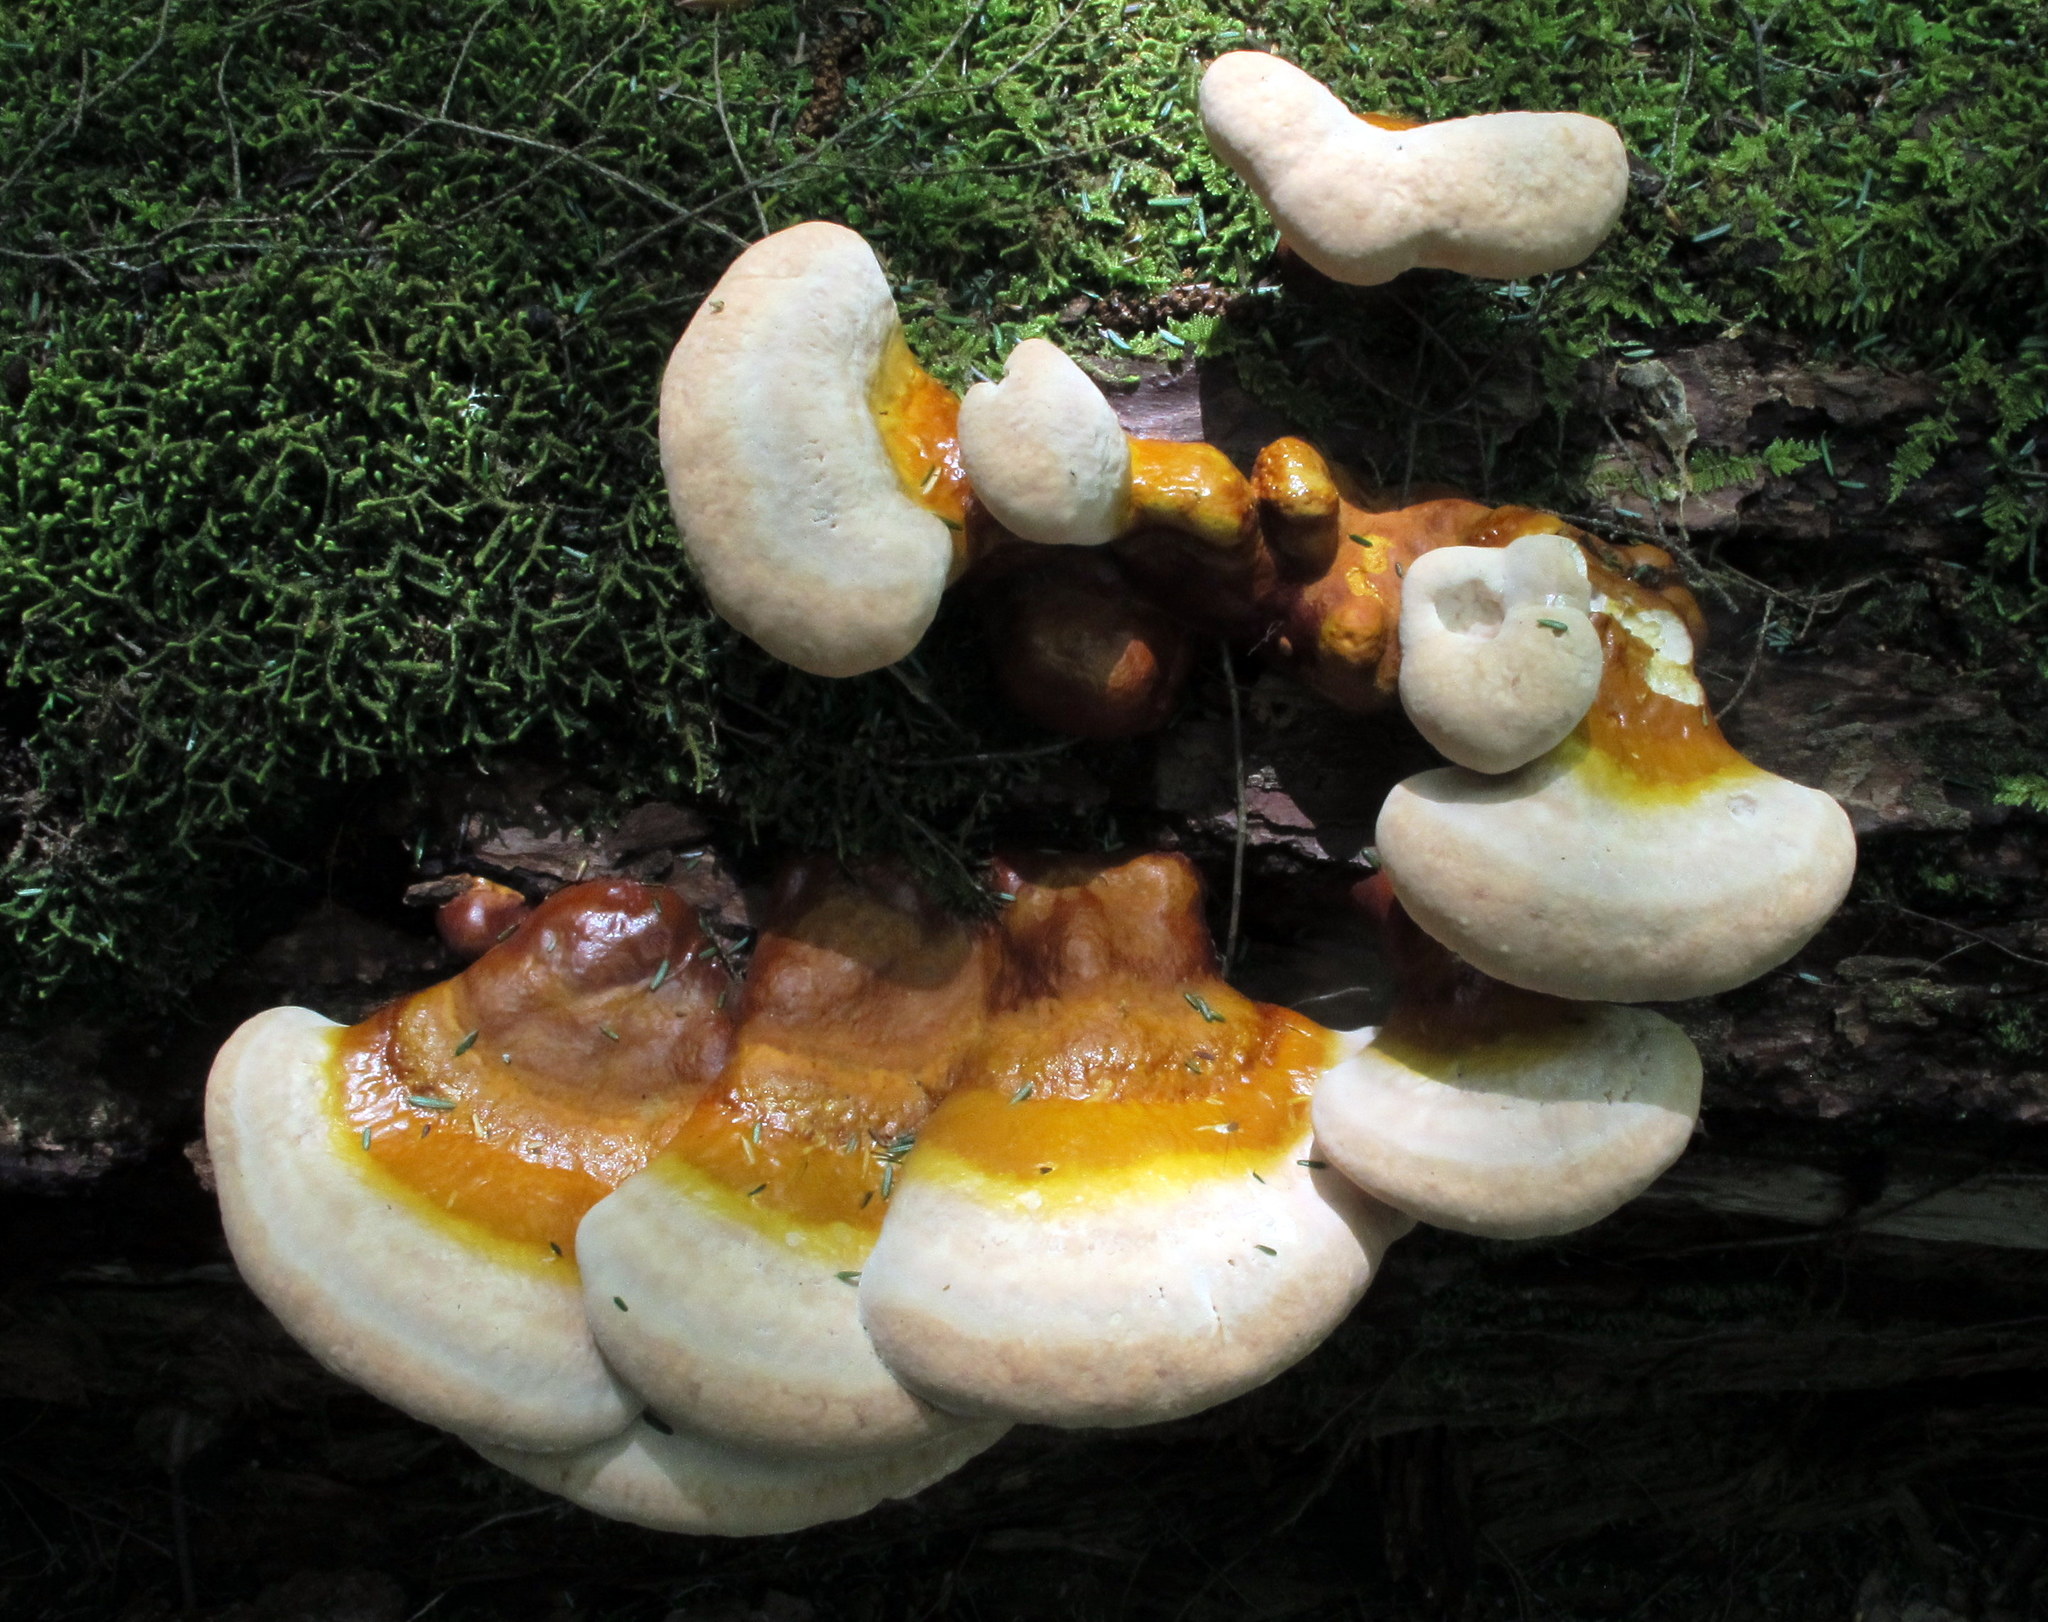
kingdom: Fungi
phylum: Basidiomycota
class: Agaricomycetes
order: Polyporales
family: Polyporaceae
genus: Ganoderma
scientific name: Ganoderma tsugae
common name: Hemlock varnish shelf
